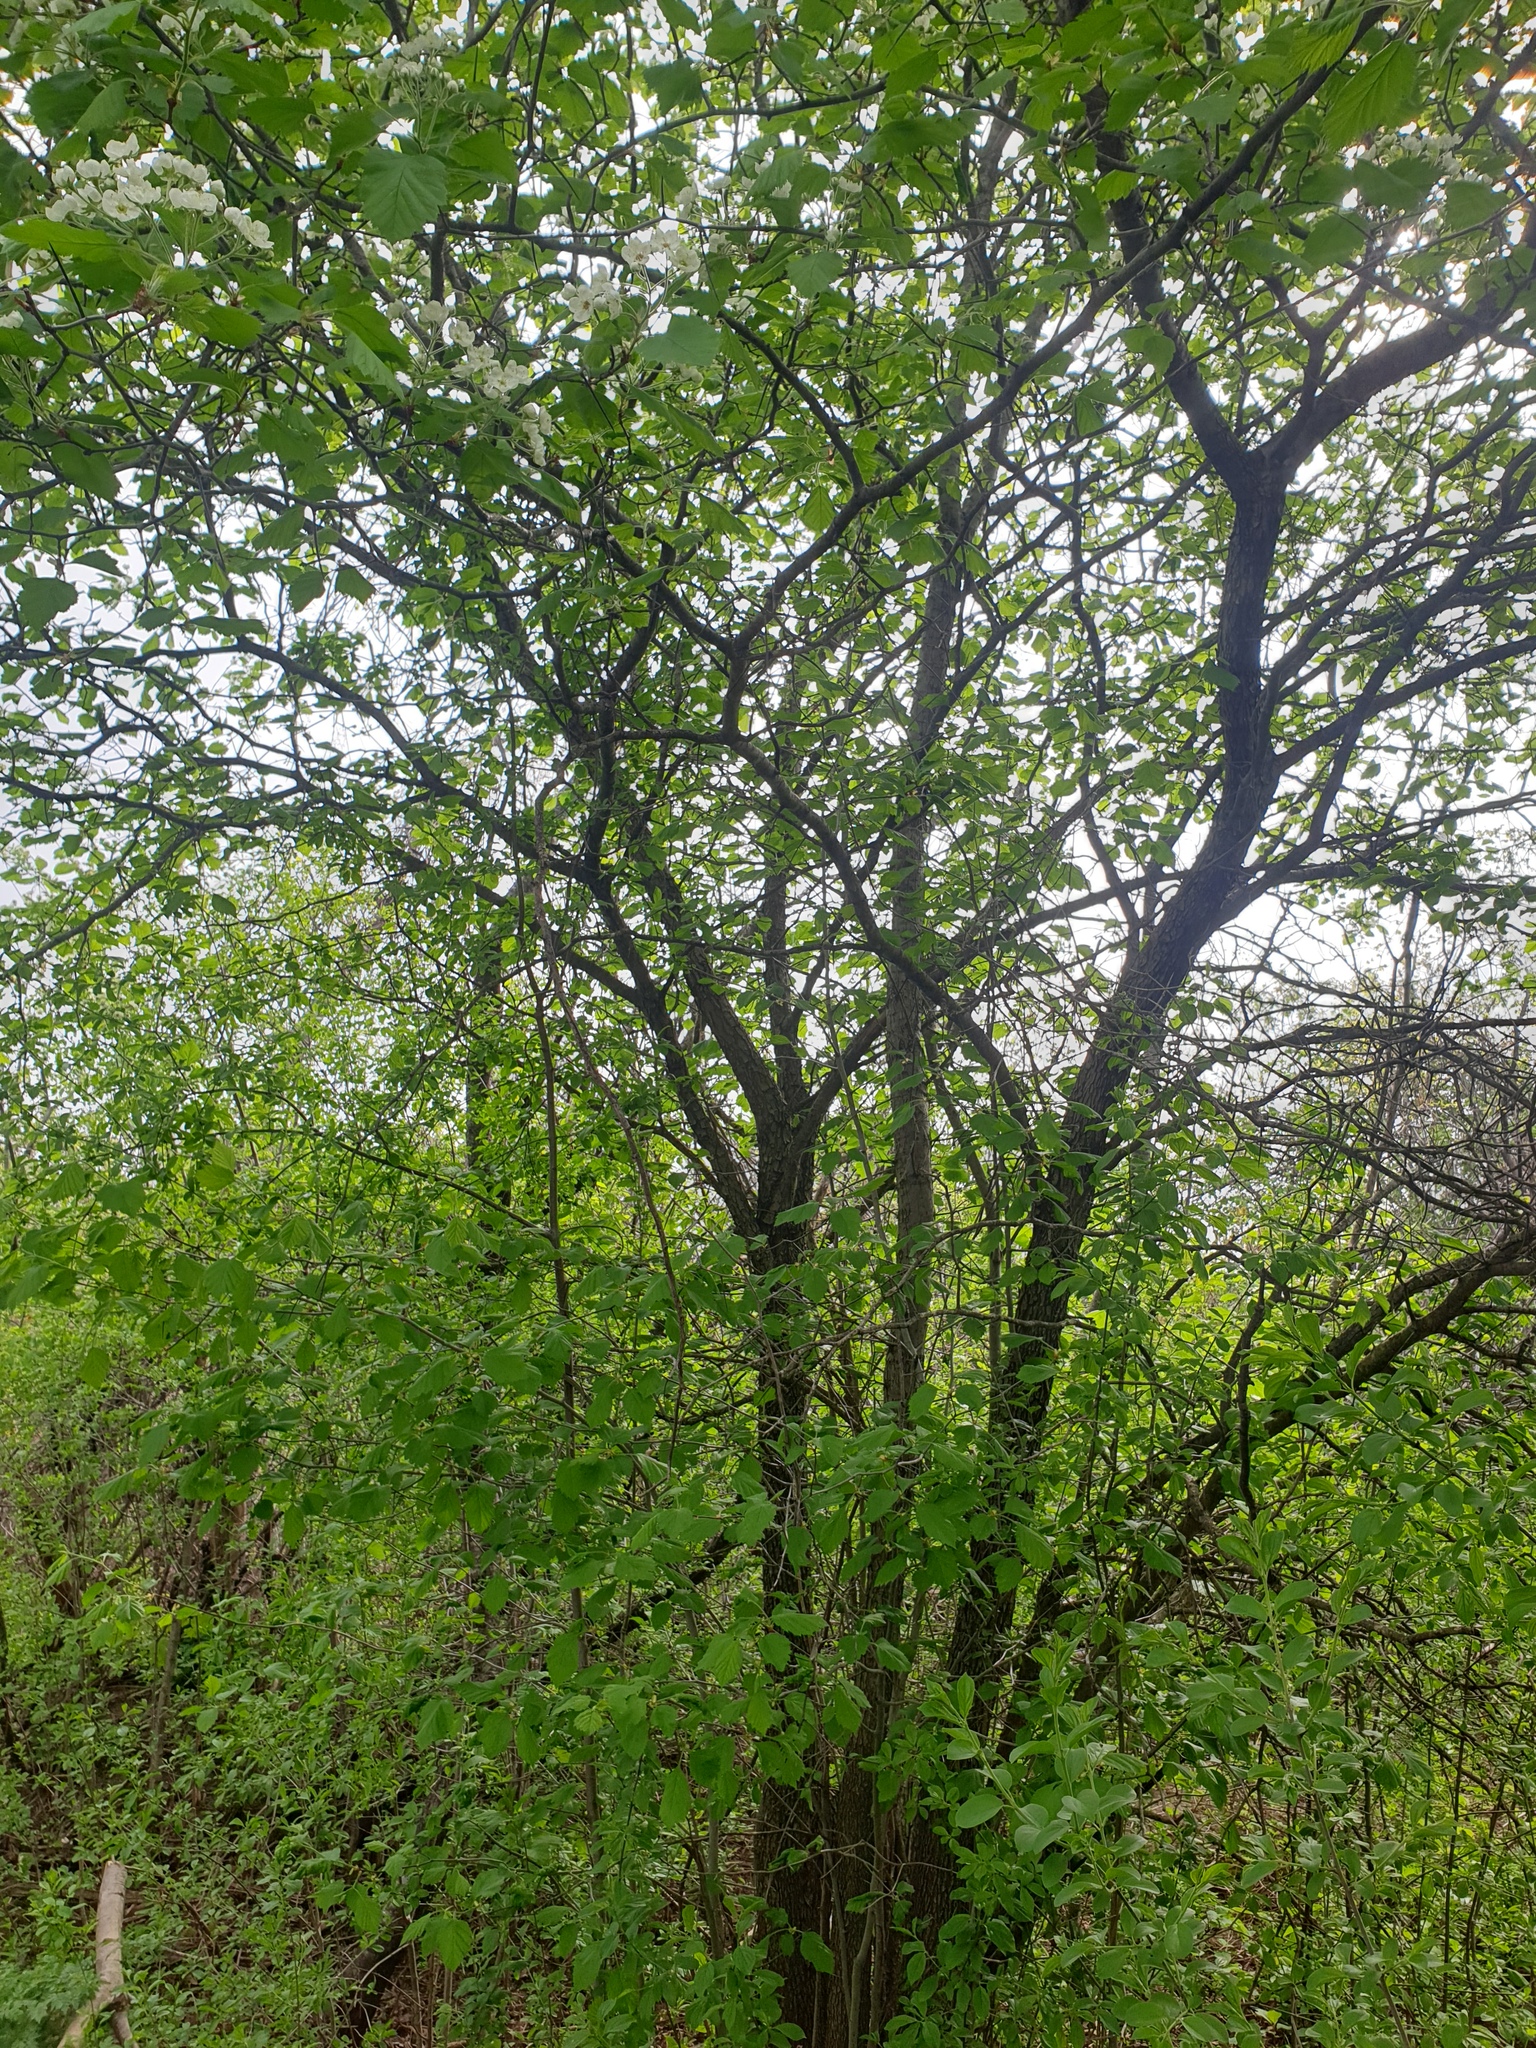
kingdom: Plantae
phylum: Tracheophyta
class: Magnoliopsida
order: Rosales
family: Rosaceae
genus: Crataegus
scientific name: Crataegus submollis
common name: Hairy cockspurthorn
